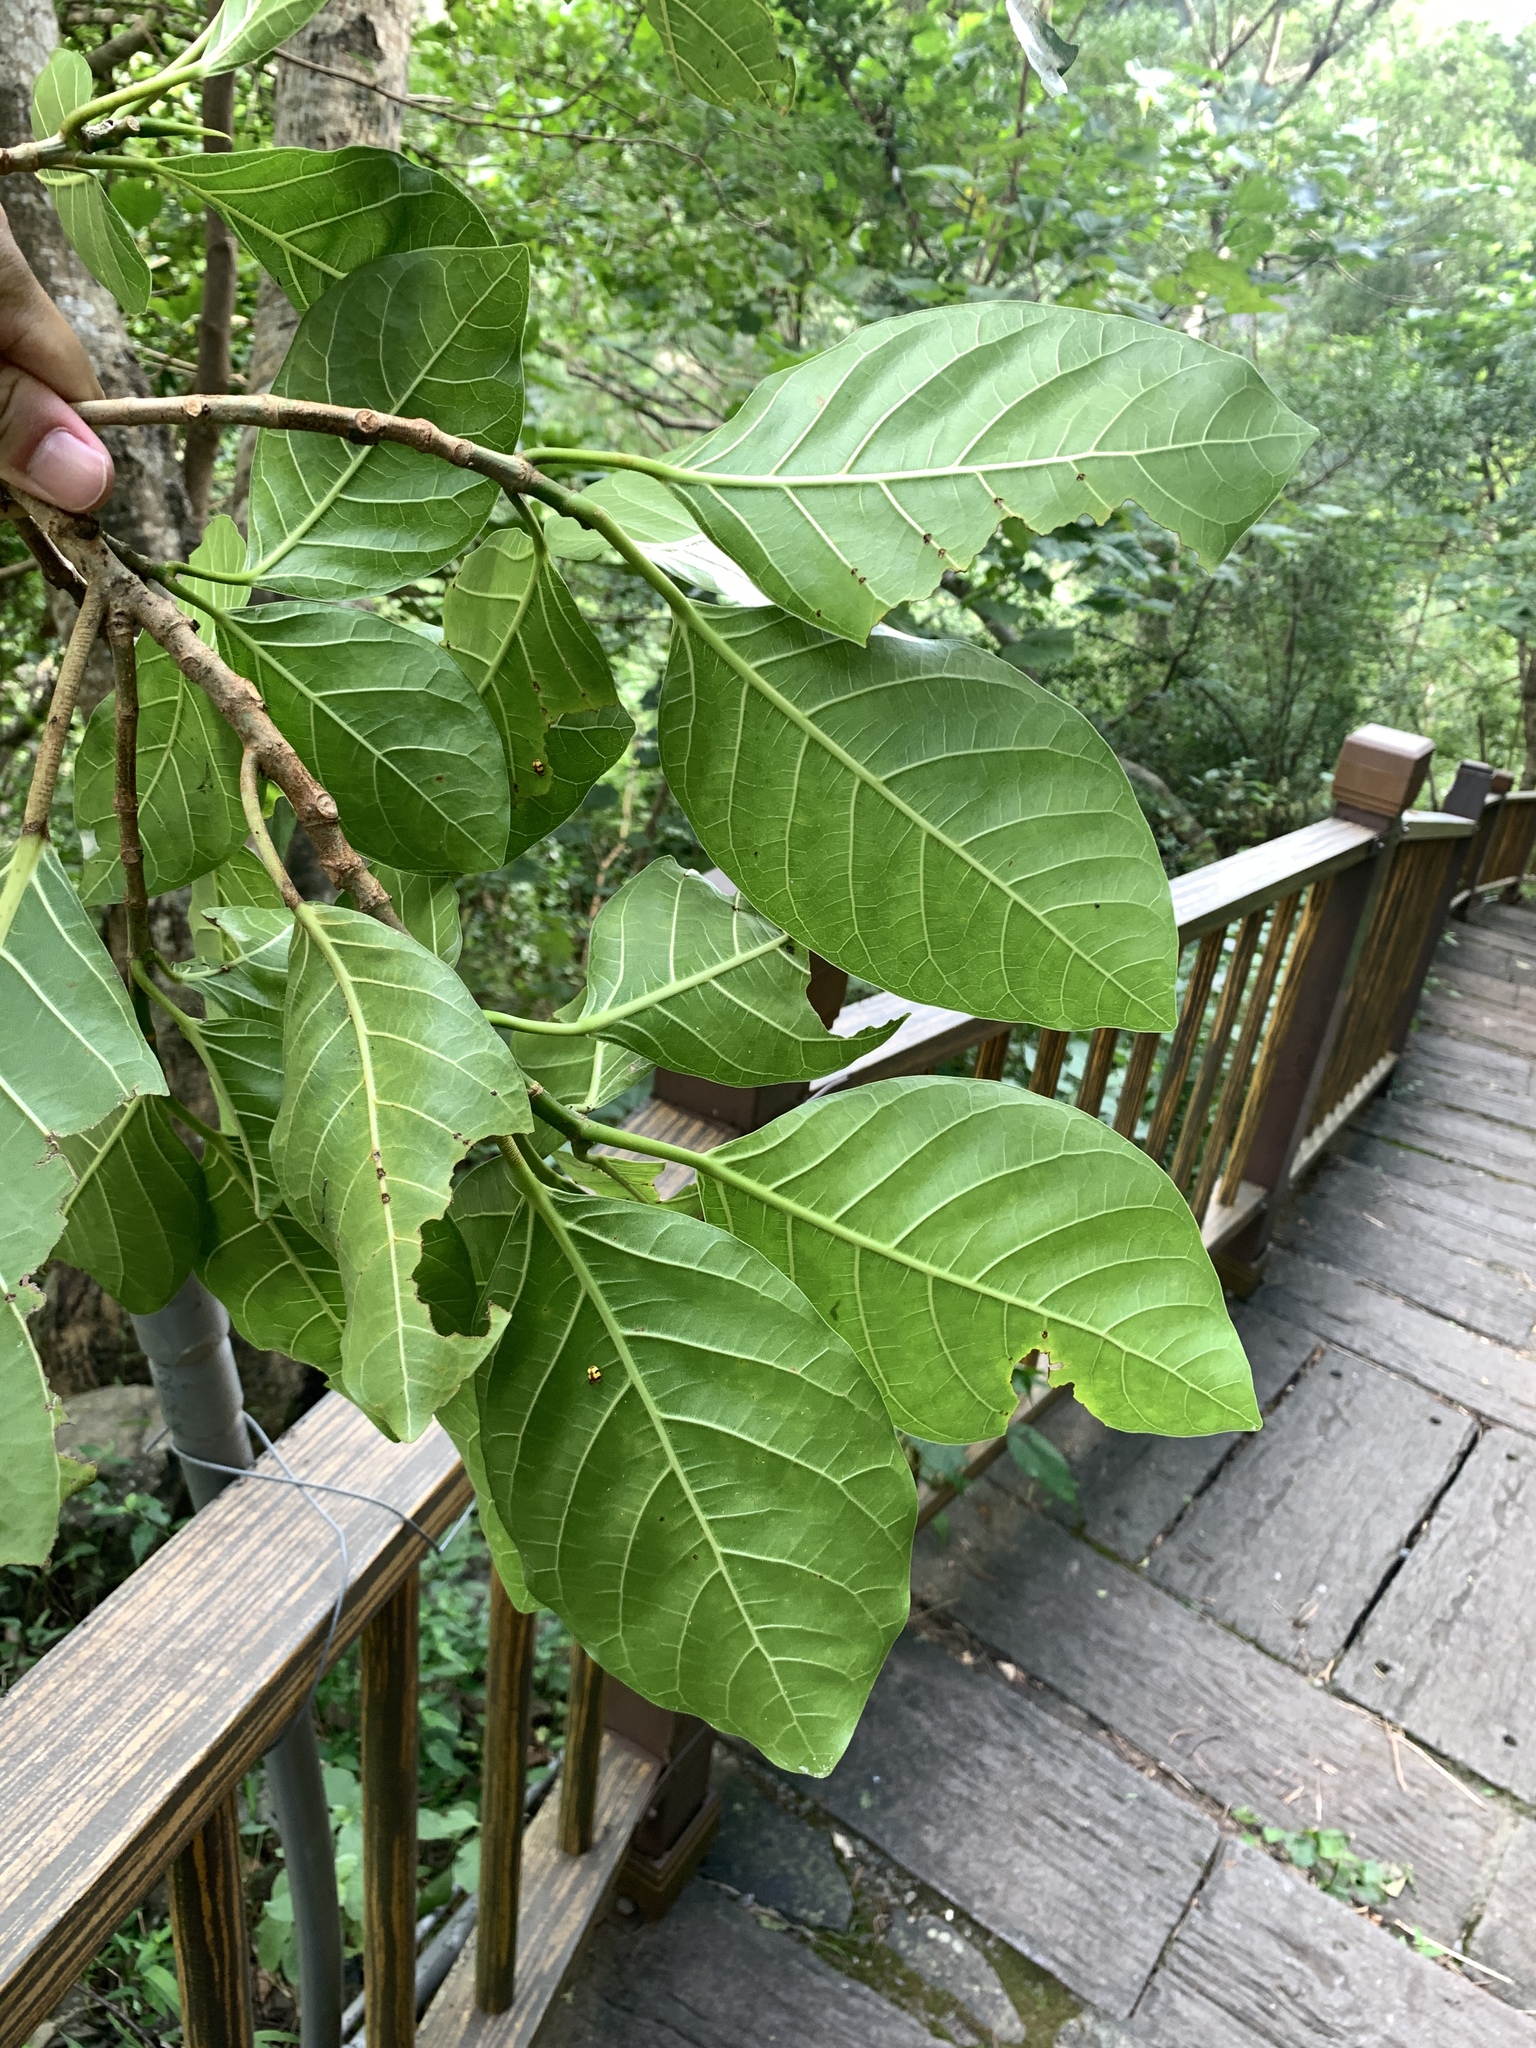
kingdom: Plantae
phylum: Tracheophyta
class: Magnoliopsida
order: Rosales
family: Moraceae
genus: Ficus
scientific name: Ficus septica
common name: Septic fig
